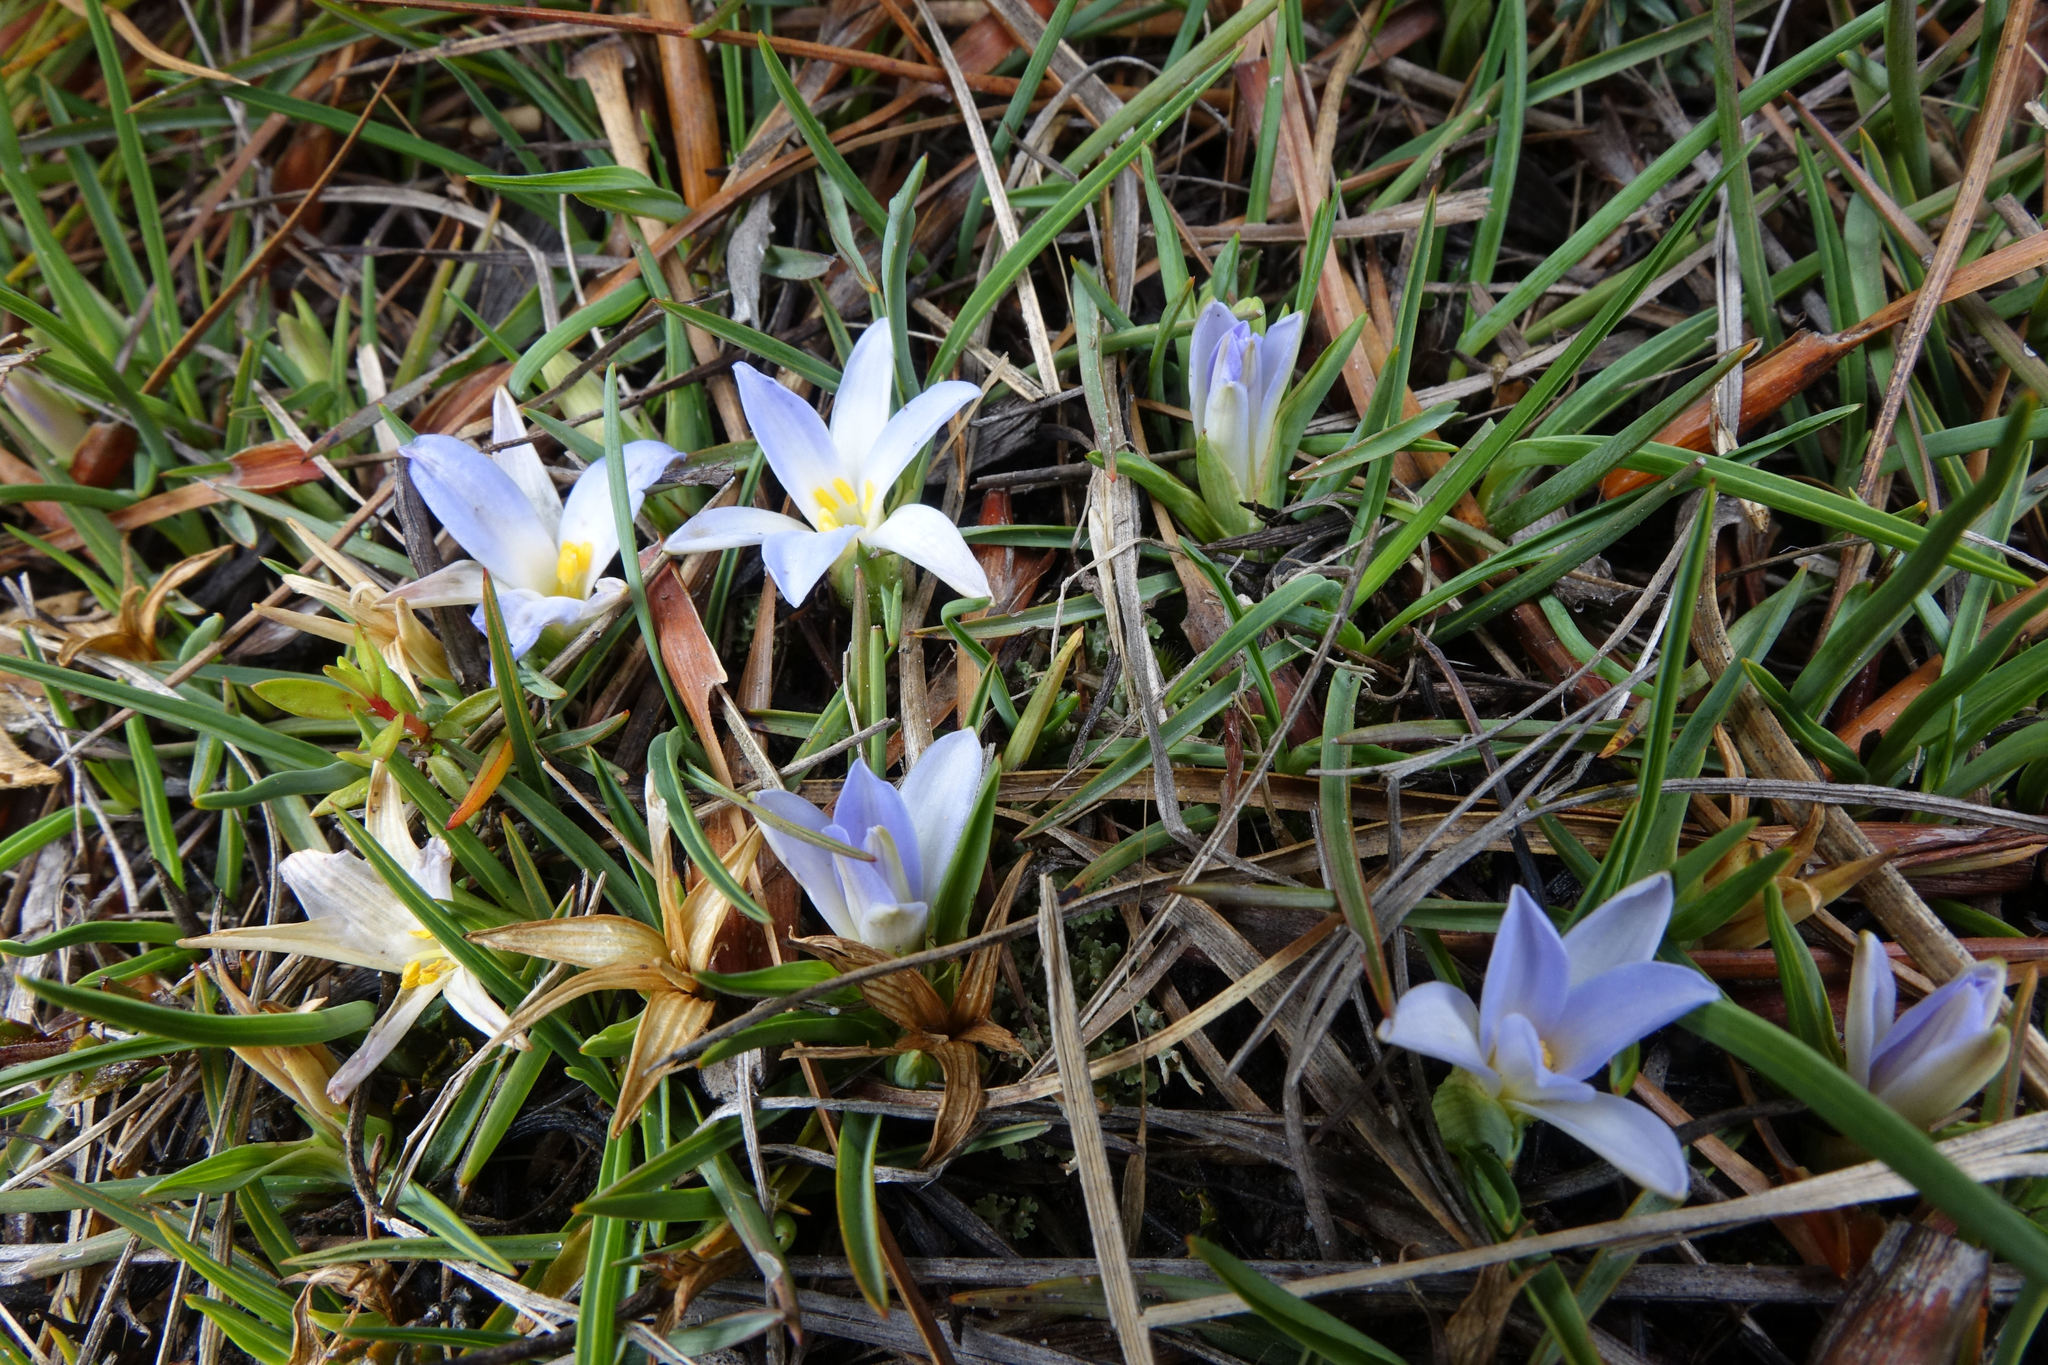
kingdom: Plantae
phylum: Tracheophyta
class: Liliopsida
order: Asparagales
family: Asphodelaceae
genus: Herpolirion
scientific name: Herpolirion novae-zelandiae
